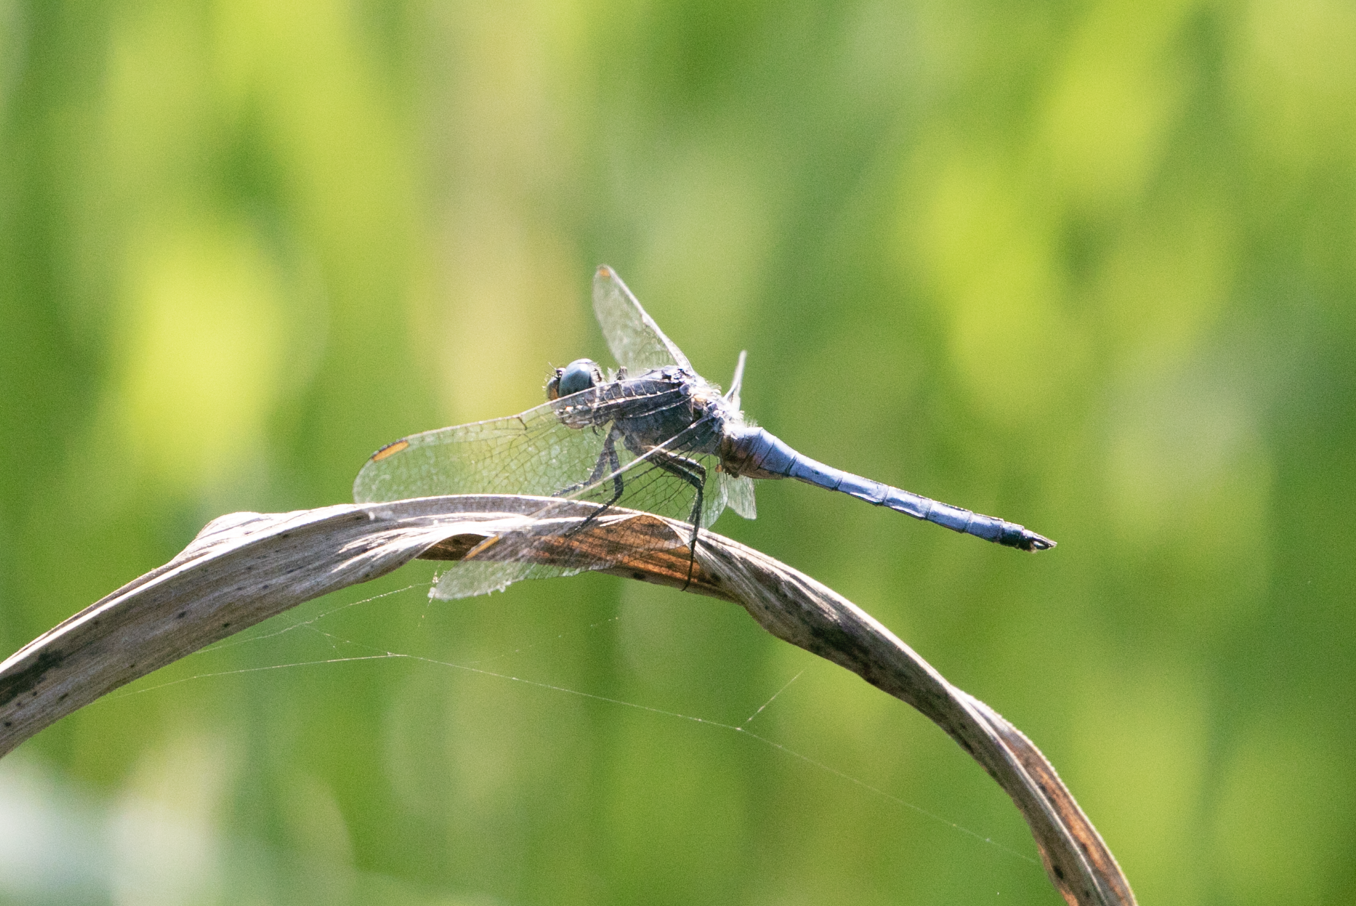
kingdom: Animalia
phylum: Arthropoda
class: Insecta
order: Odonata
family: Libellulidae
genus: Orthetrum
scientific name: Orthetrum coerulescens
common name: Keeled skimmer
